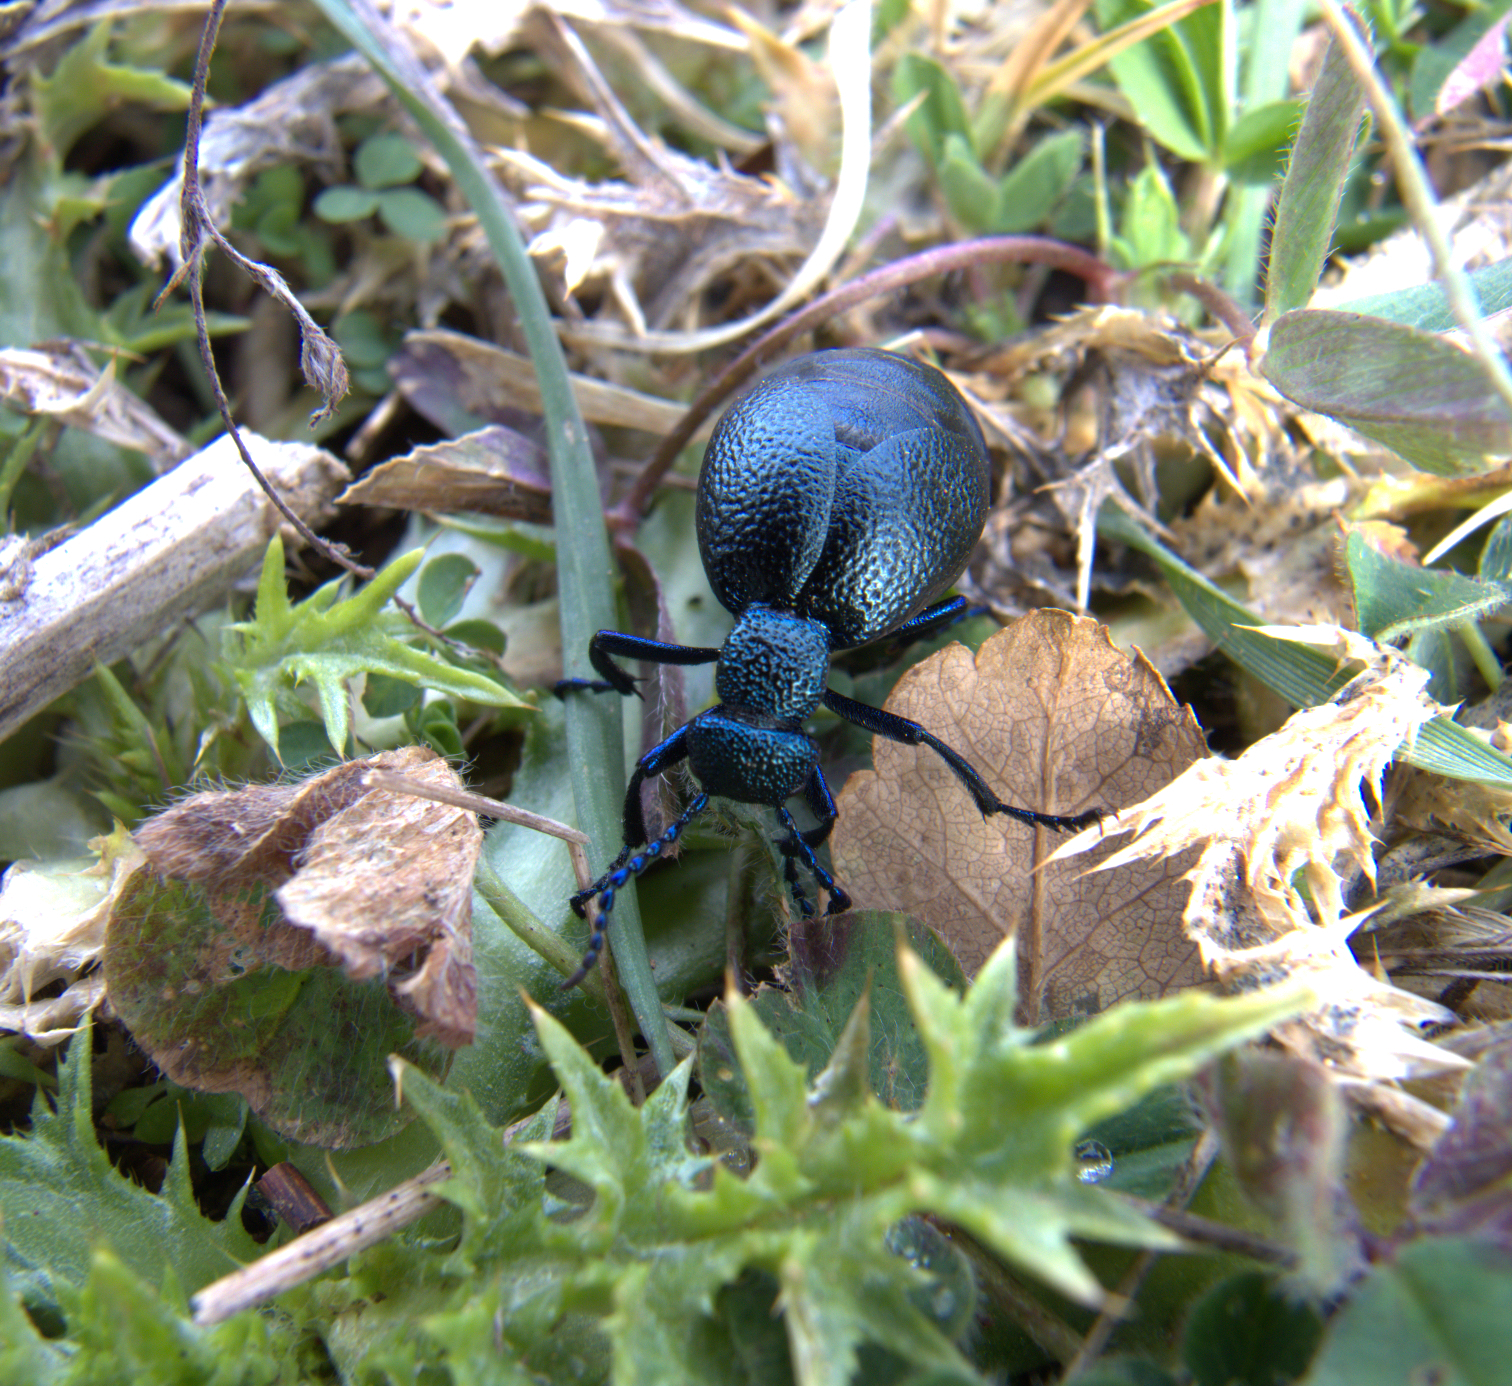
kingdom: Animalia
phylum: Arthropoda
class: Insecta
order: Coleoptera
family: Meloidae
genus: Meloe
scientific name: Meloe proscarabaeus
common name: Black oil-beetle
